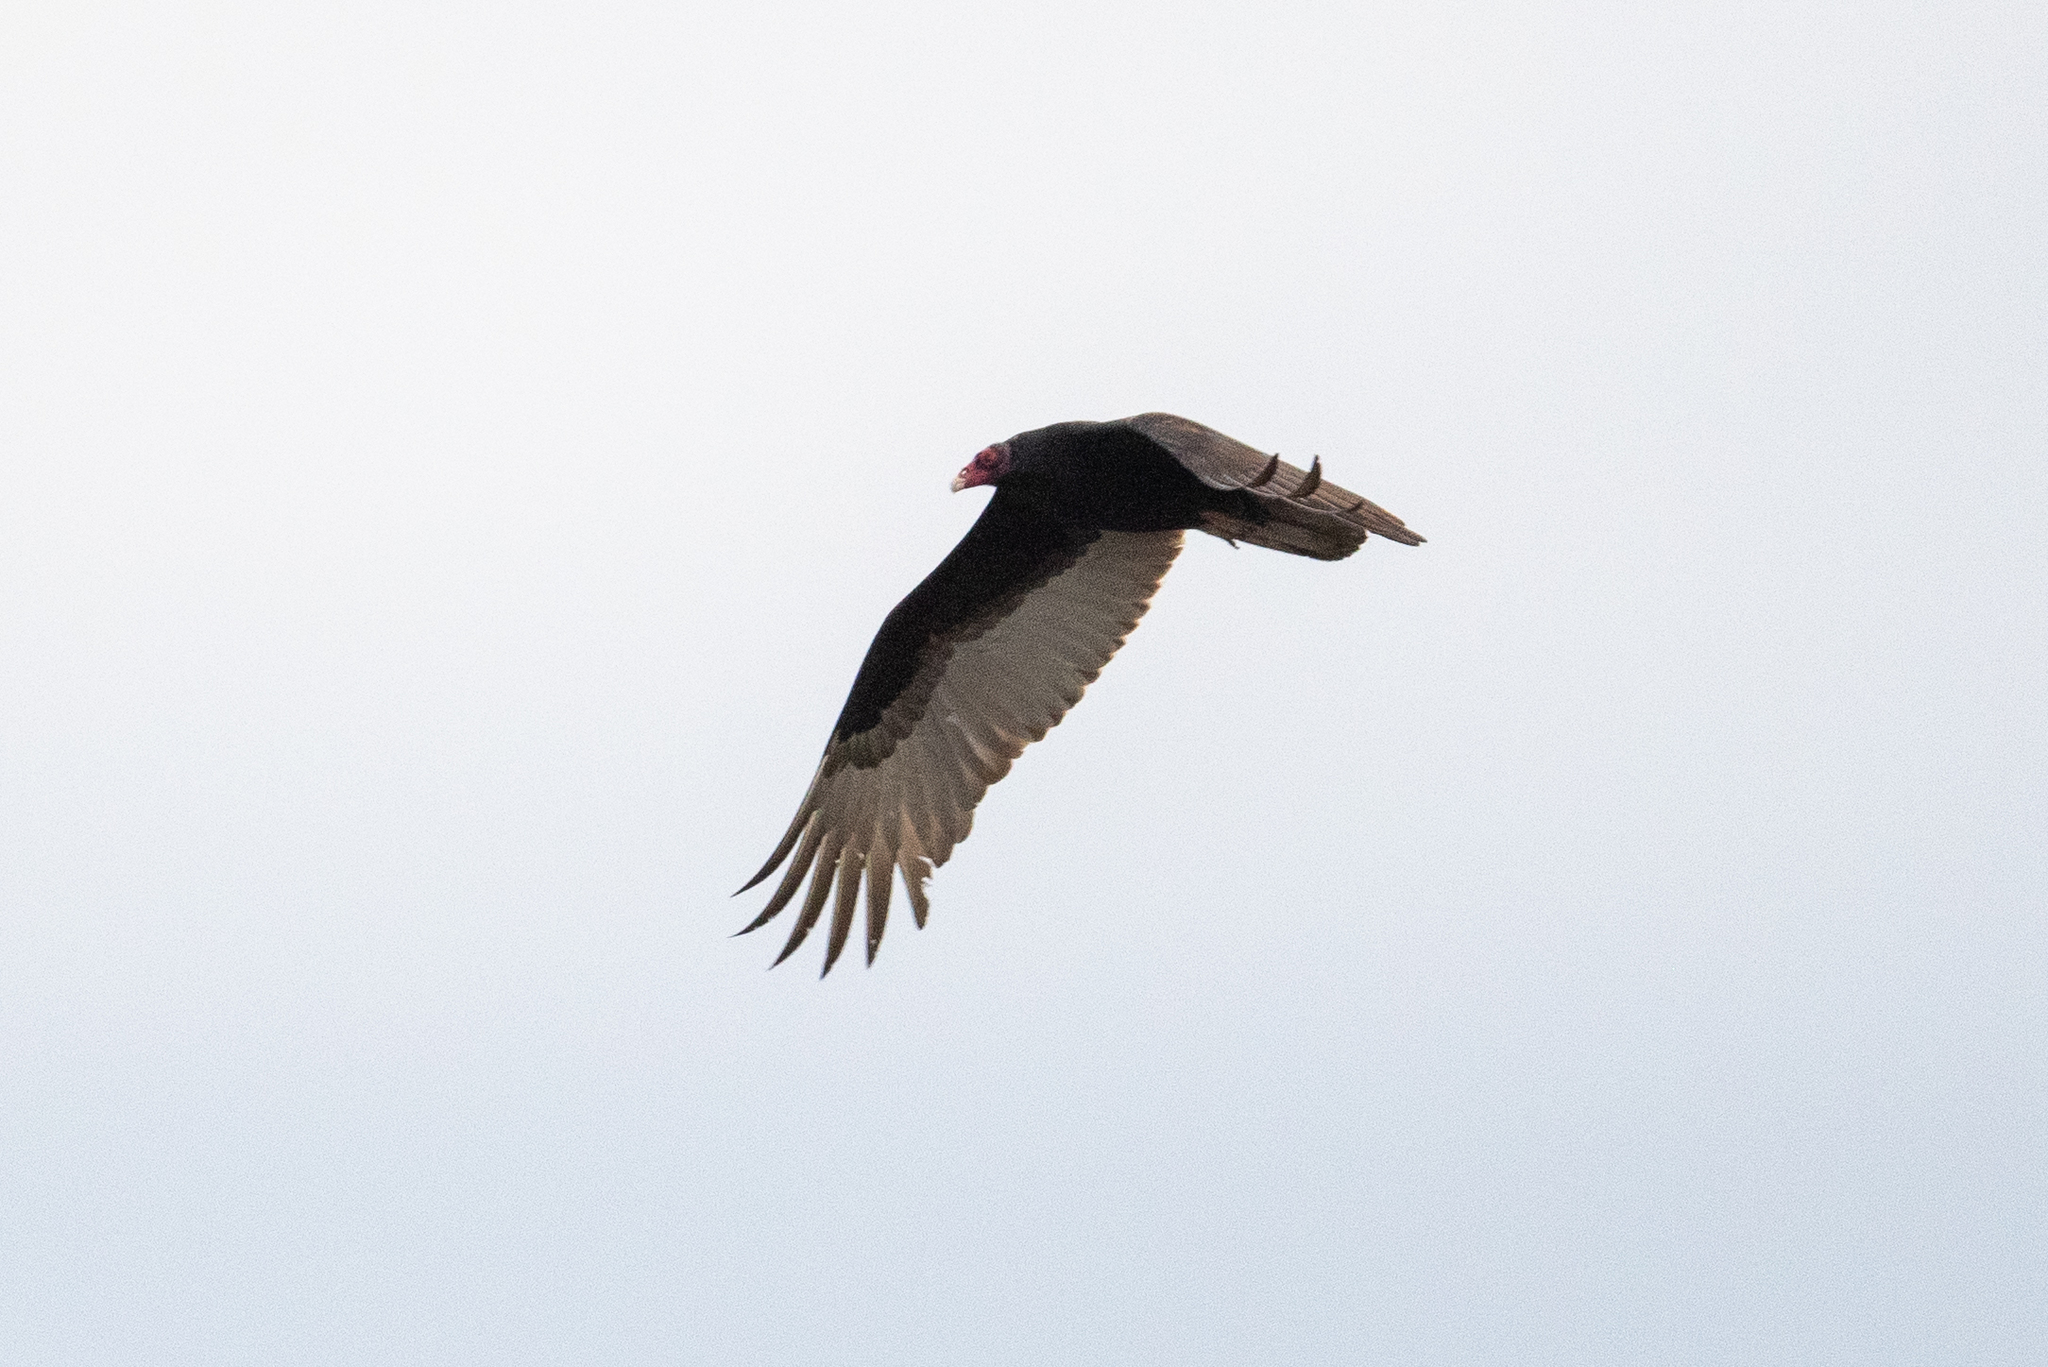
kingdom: Animalia
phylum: Chordata
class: Aves
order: Accipitriformes
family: Cathartidae
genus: Cathartes
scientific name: Cathartes aura
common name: Turkey vulture
